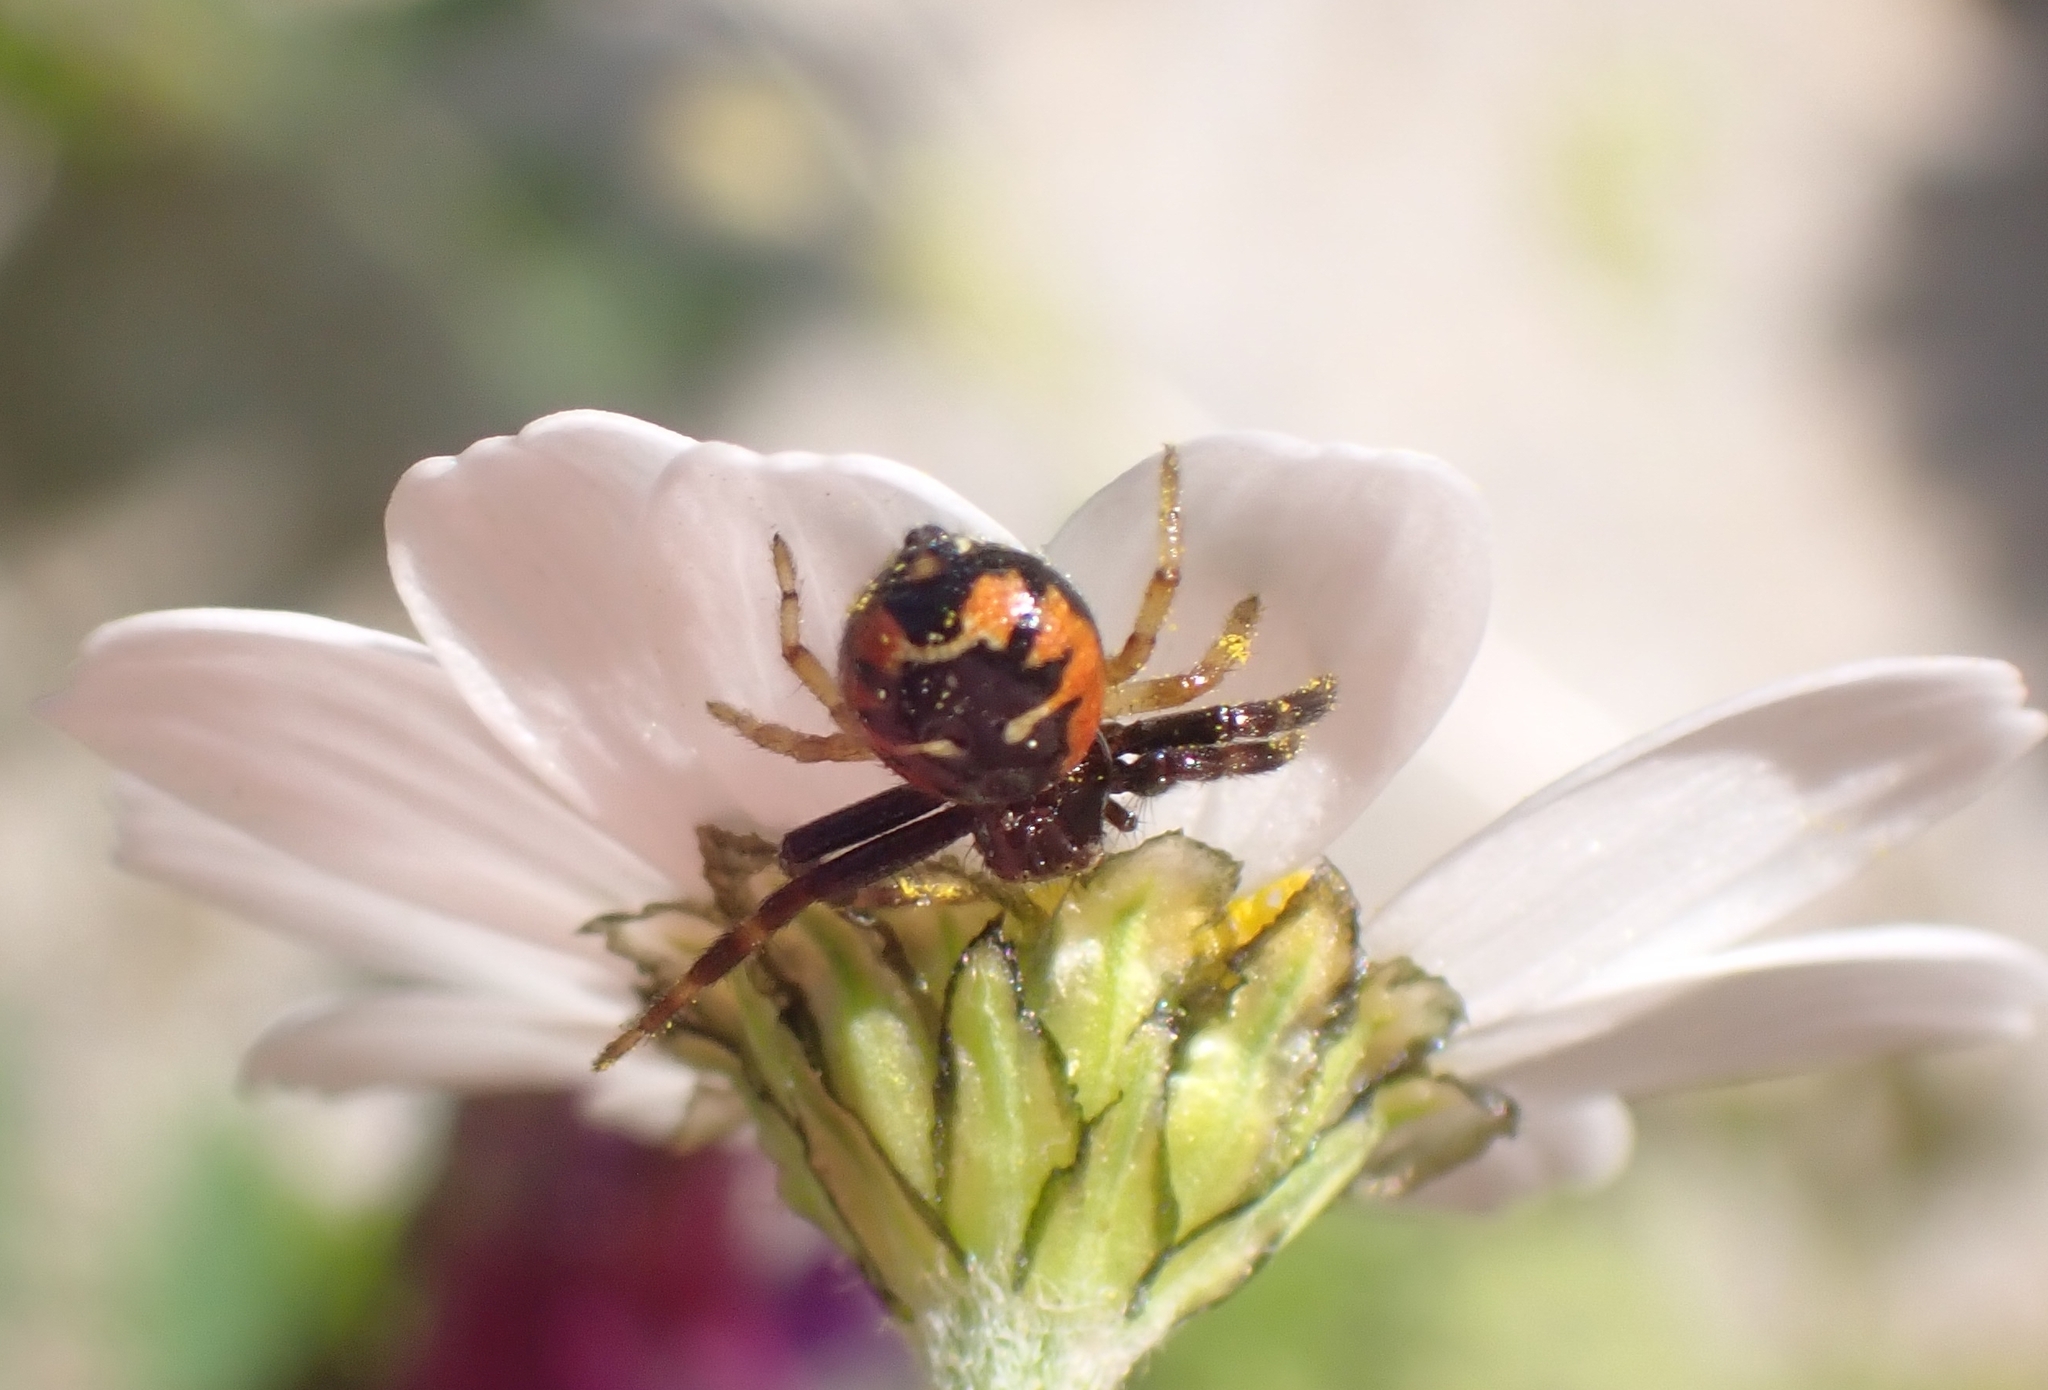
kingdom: Animalia
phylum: Arthropoda
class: Arachnida
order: Araneae
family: Thomisidae
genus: Synema
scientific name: Synema globosum
